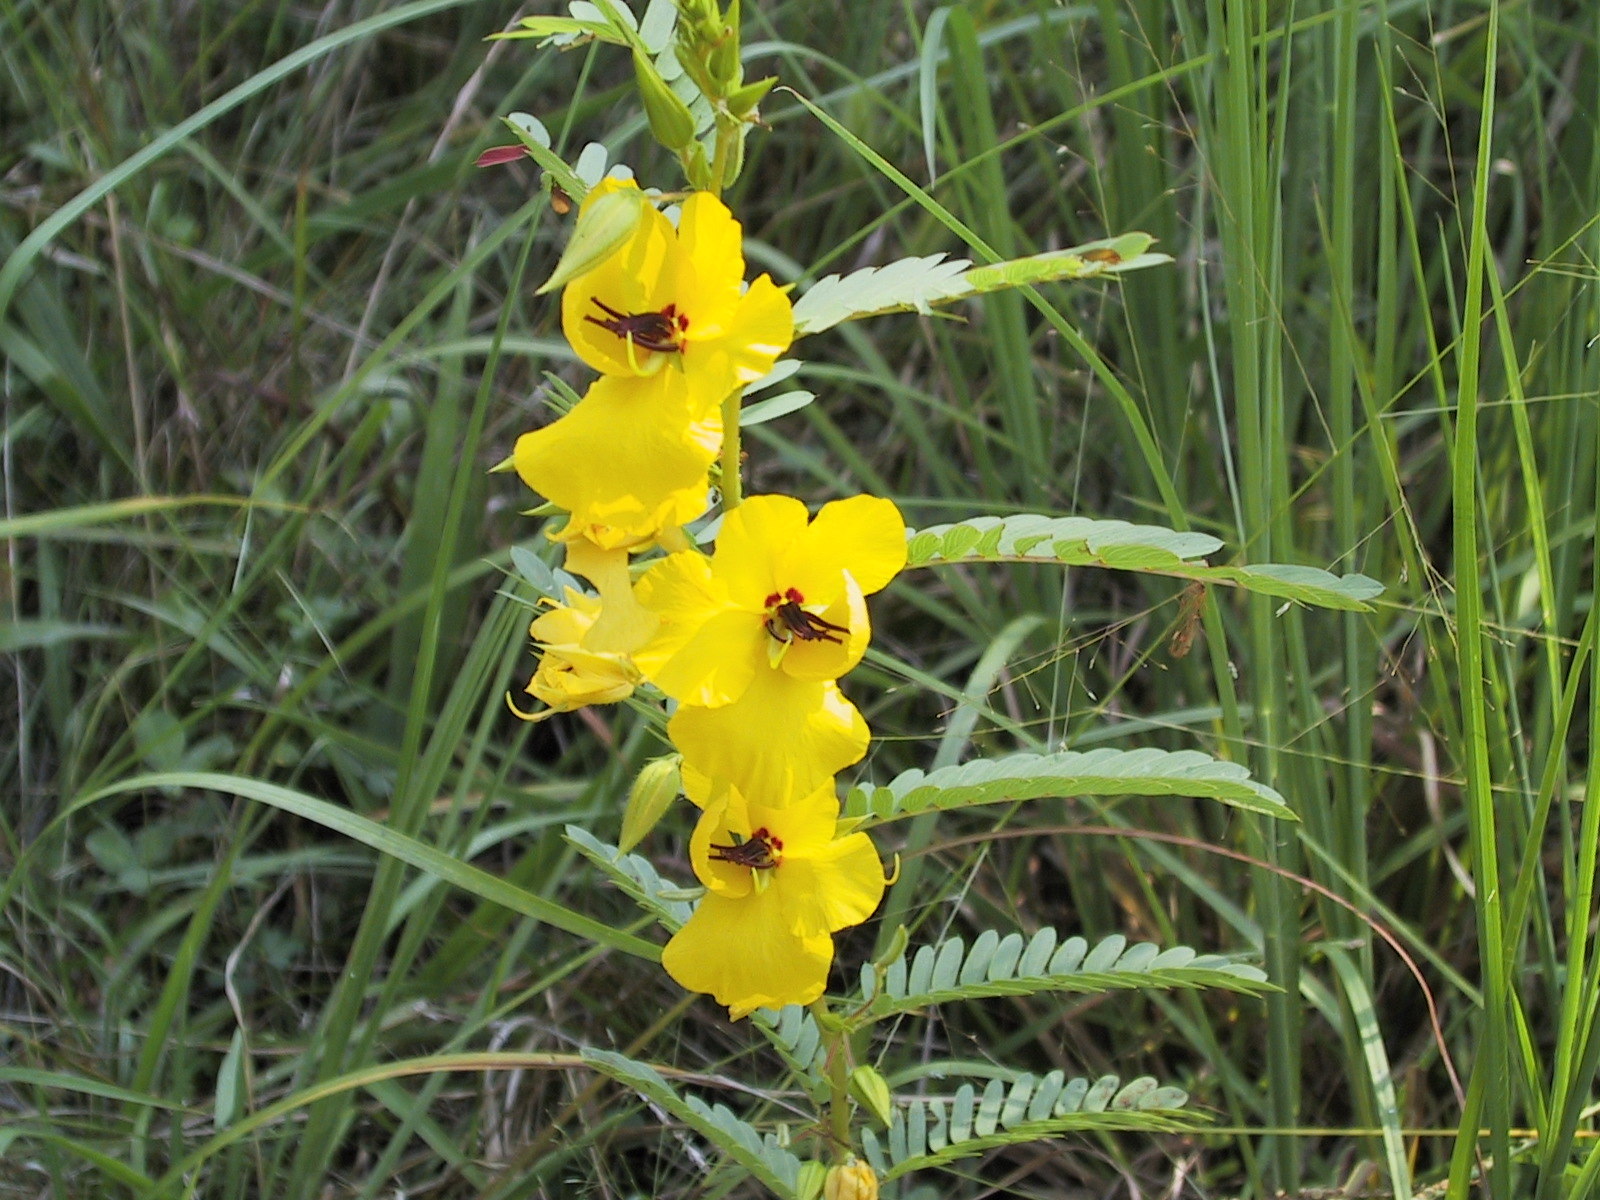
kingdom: Plantae
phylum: Tracheophyta
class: Magnoliopsida
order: Fabales
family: Fabaceae
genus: Chamaecrista
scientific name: Chamaecrista fasciculata
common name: Golden cassia
